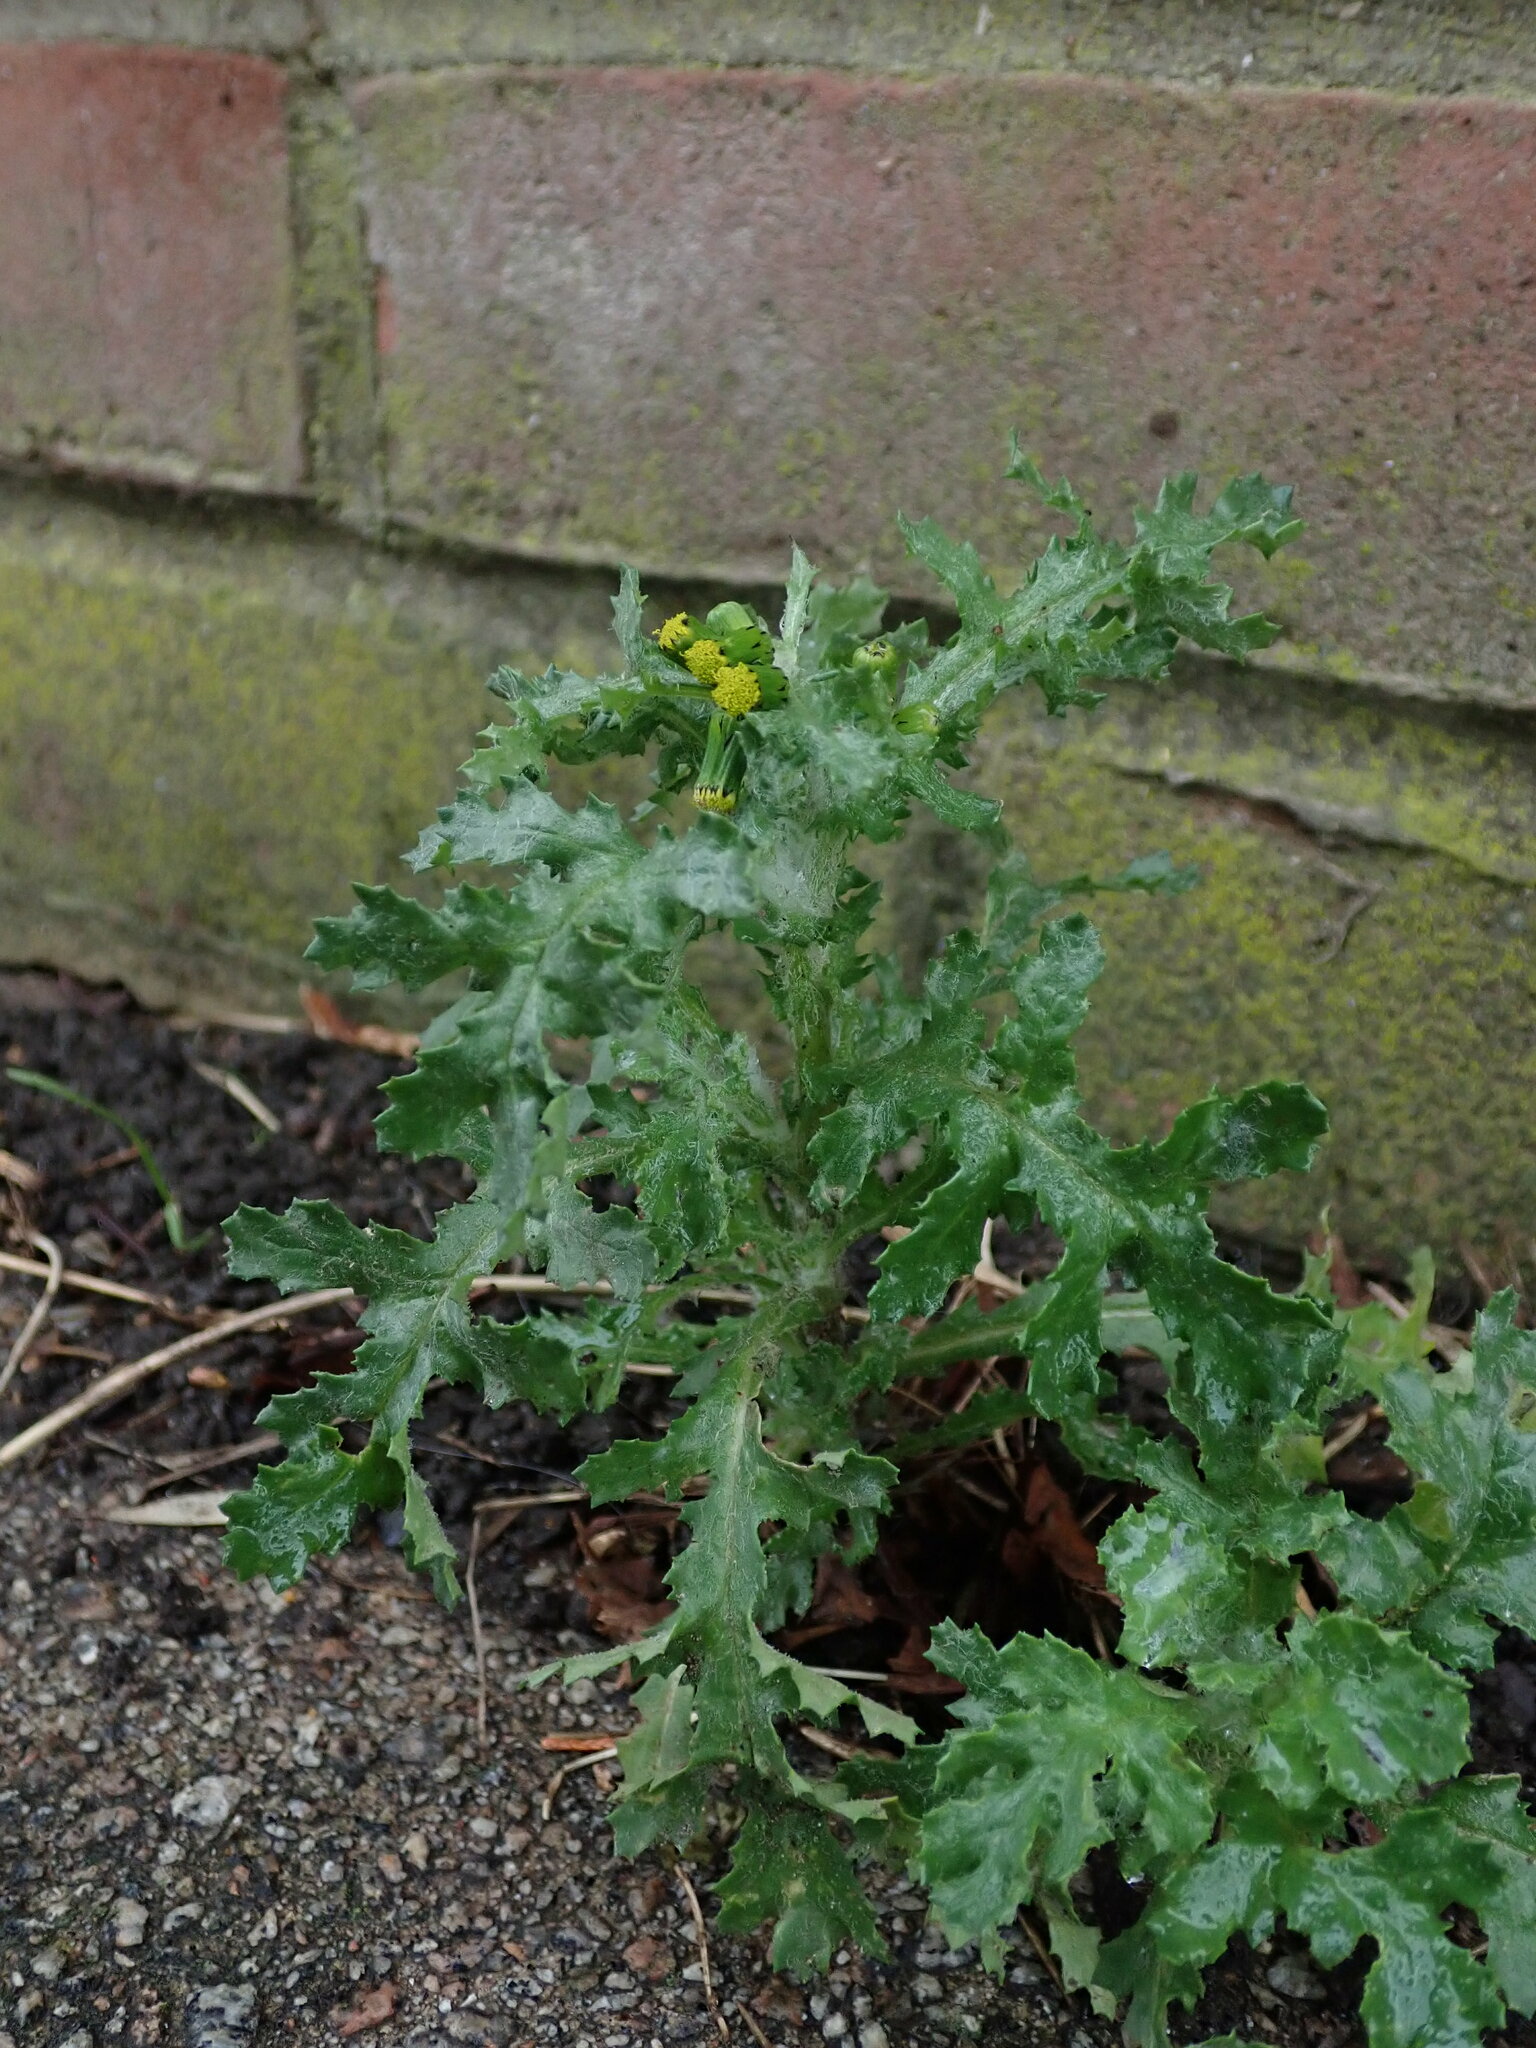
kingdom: Plantae
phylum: Tracheophyta
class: Magnoliopsida
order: Asterales
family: Asteraceae
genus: Senecio
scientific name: Senecio vulgaris
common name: Old-man-in-the-spring
